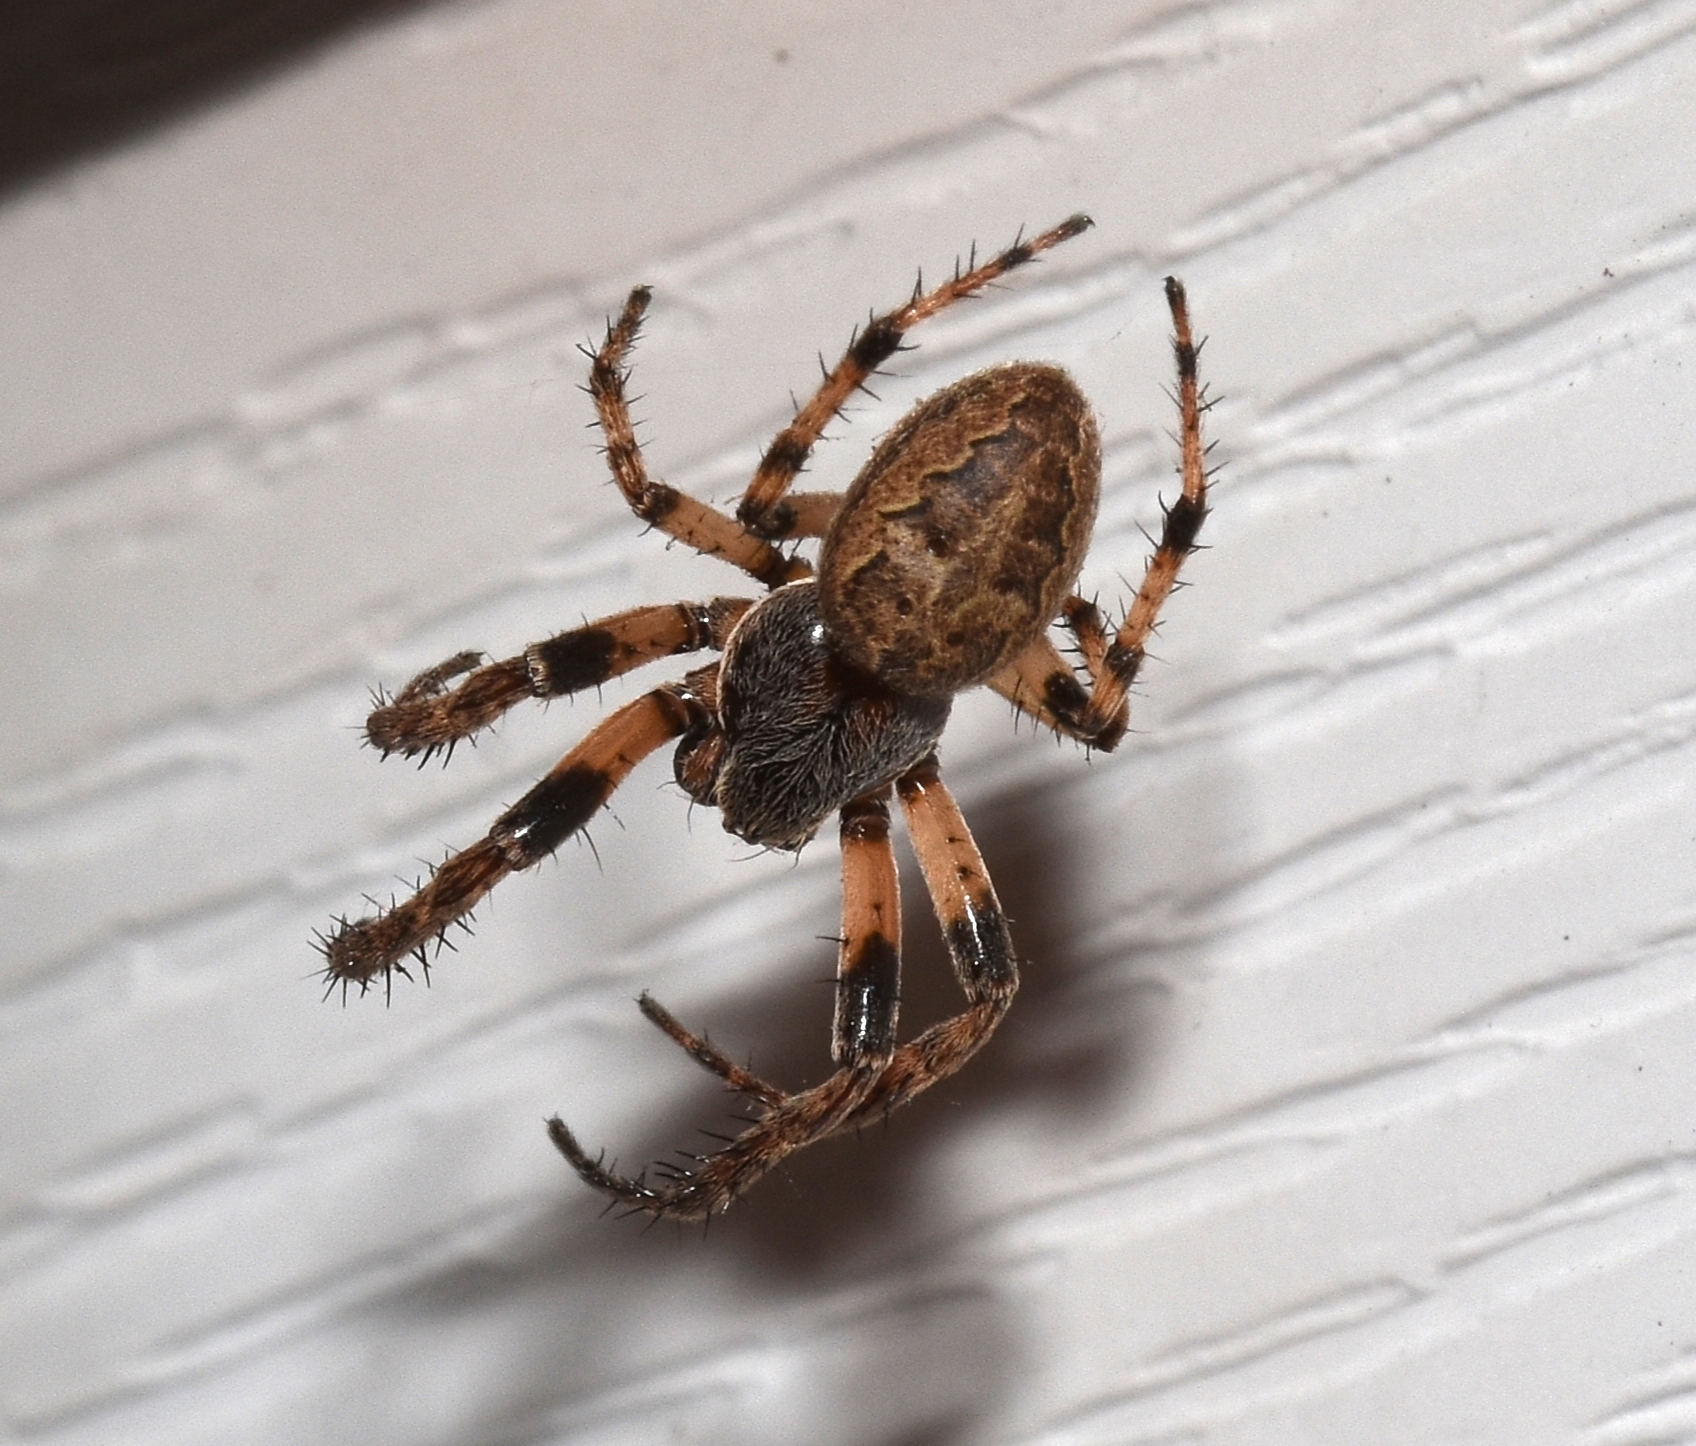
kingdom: Animalia
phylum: Arthropoda
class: Arachnida
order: Araneae
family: Araneidae
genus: Larinioides
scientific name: Larinioides cornutus
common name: Furrow orbweaver
